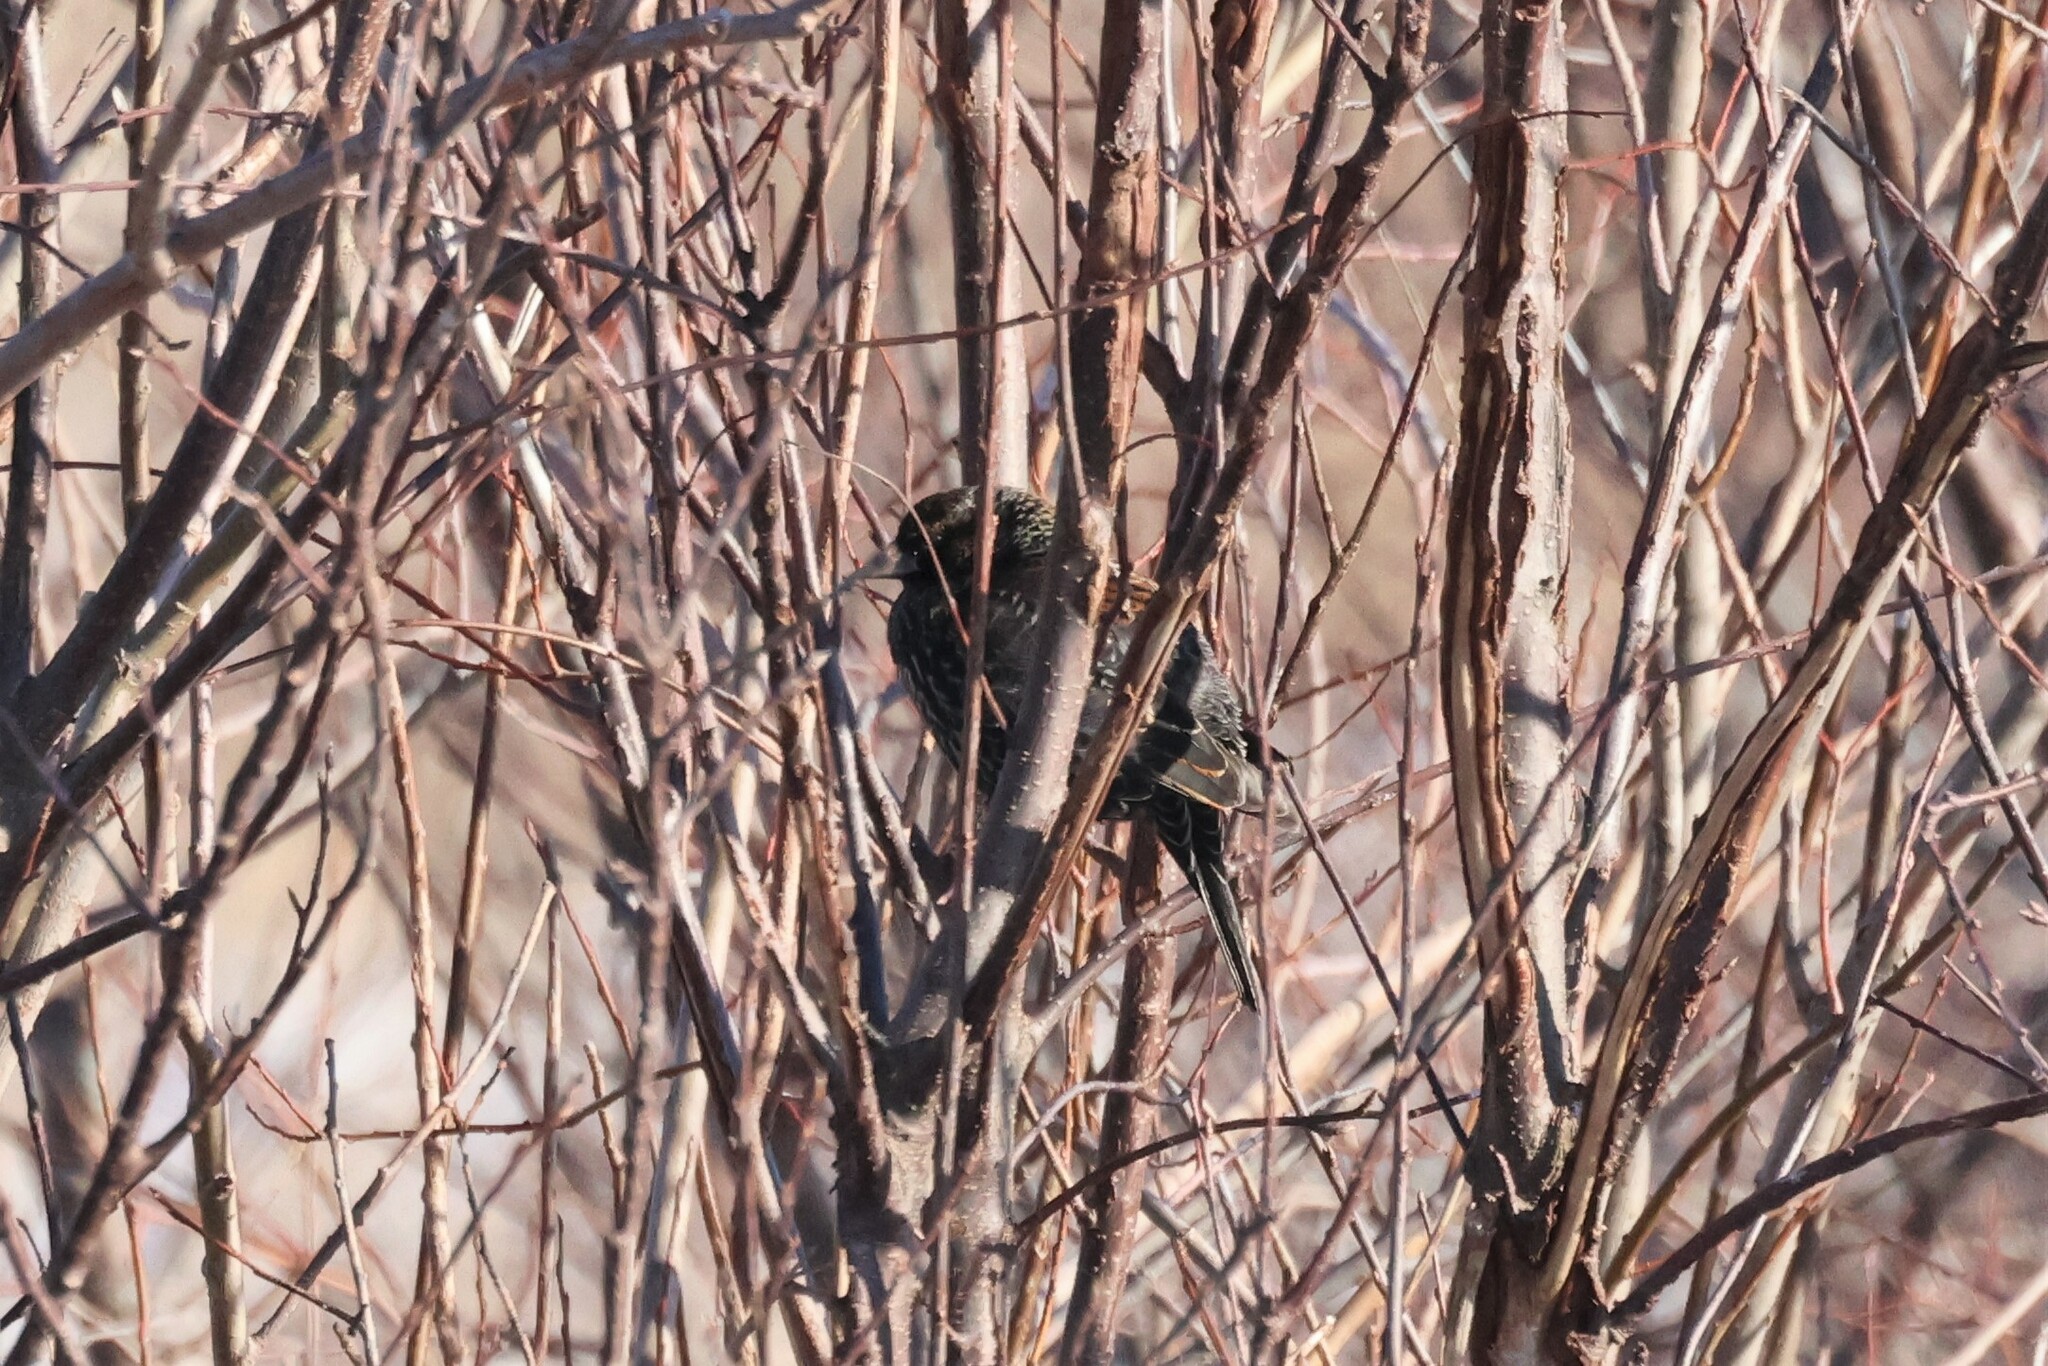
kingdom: Animalia
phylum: Chordata
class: Aves
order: Passeriformes
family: Icteridae
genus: Agelaius
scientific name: Agelaius phoeniceus
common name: Red-winged blackbird
